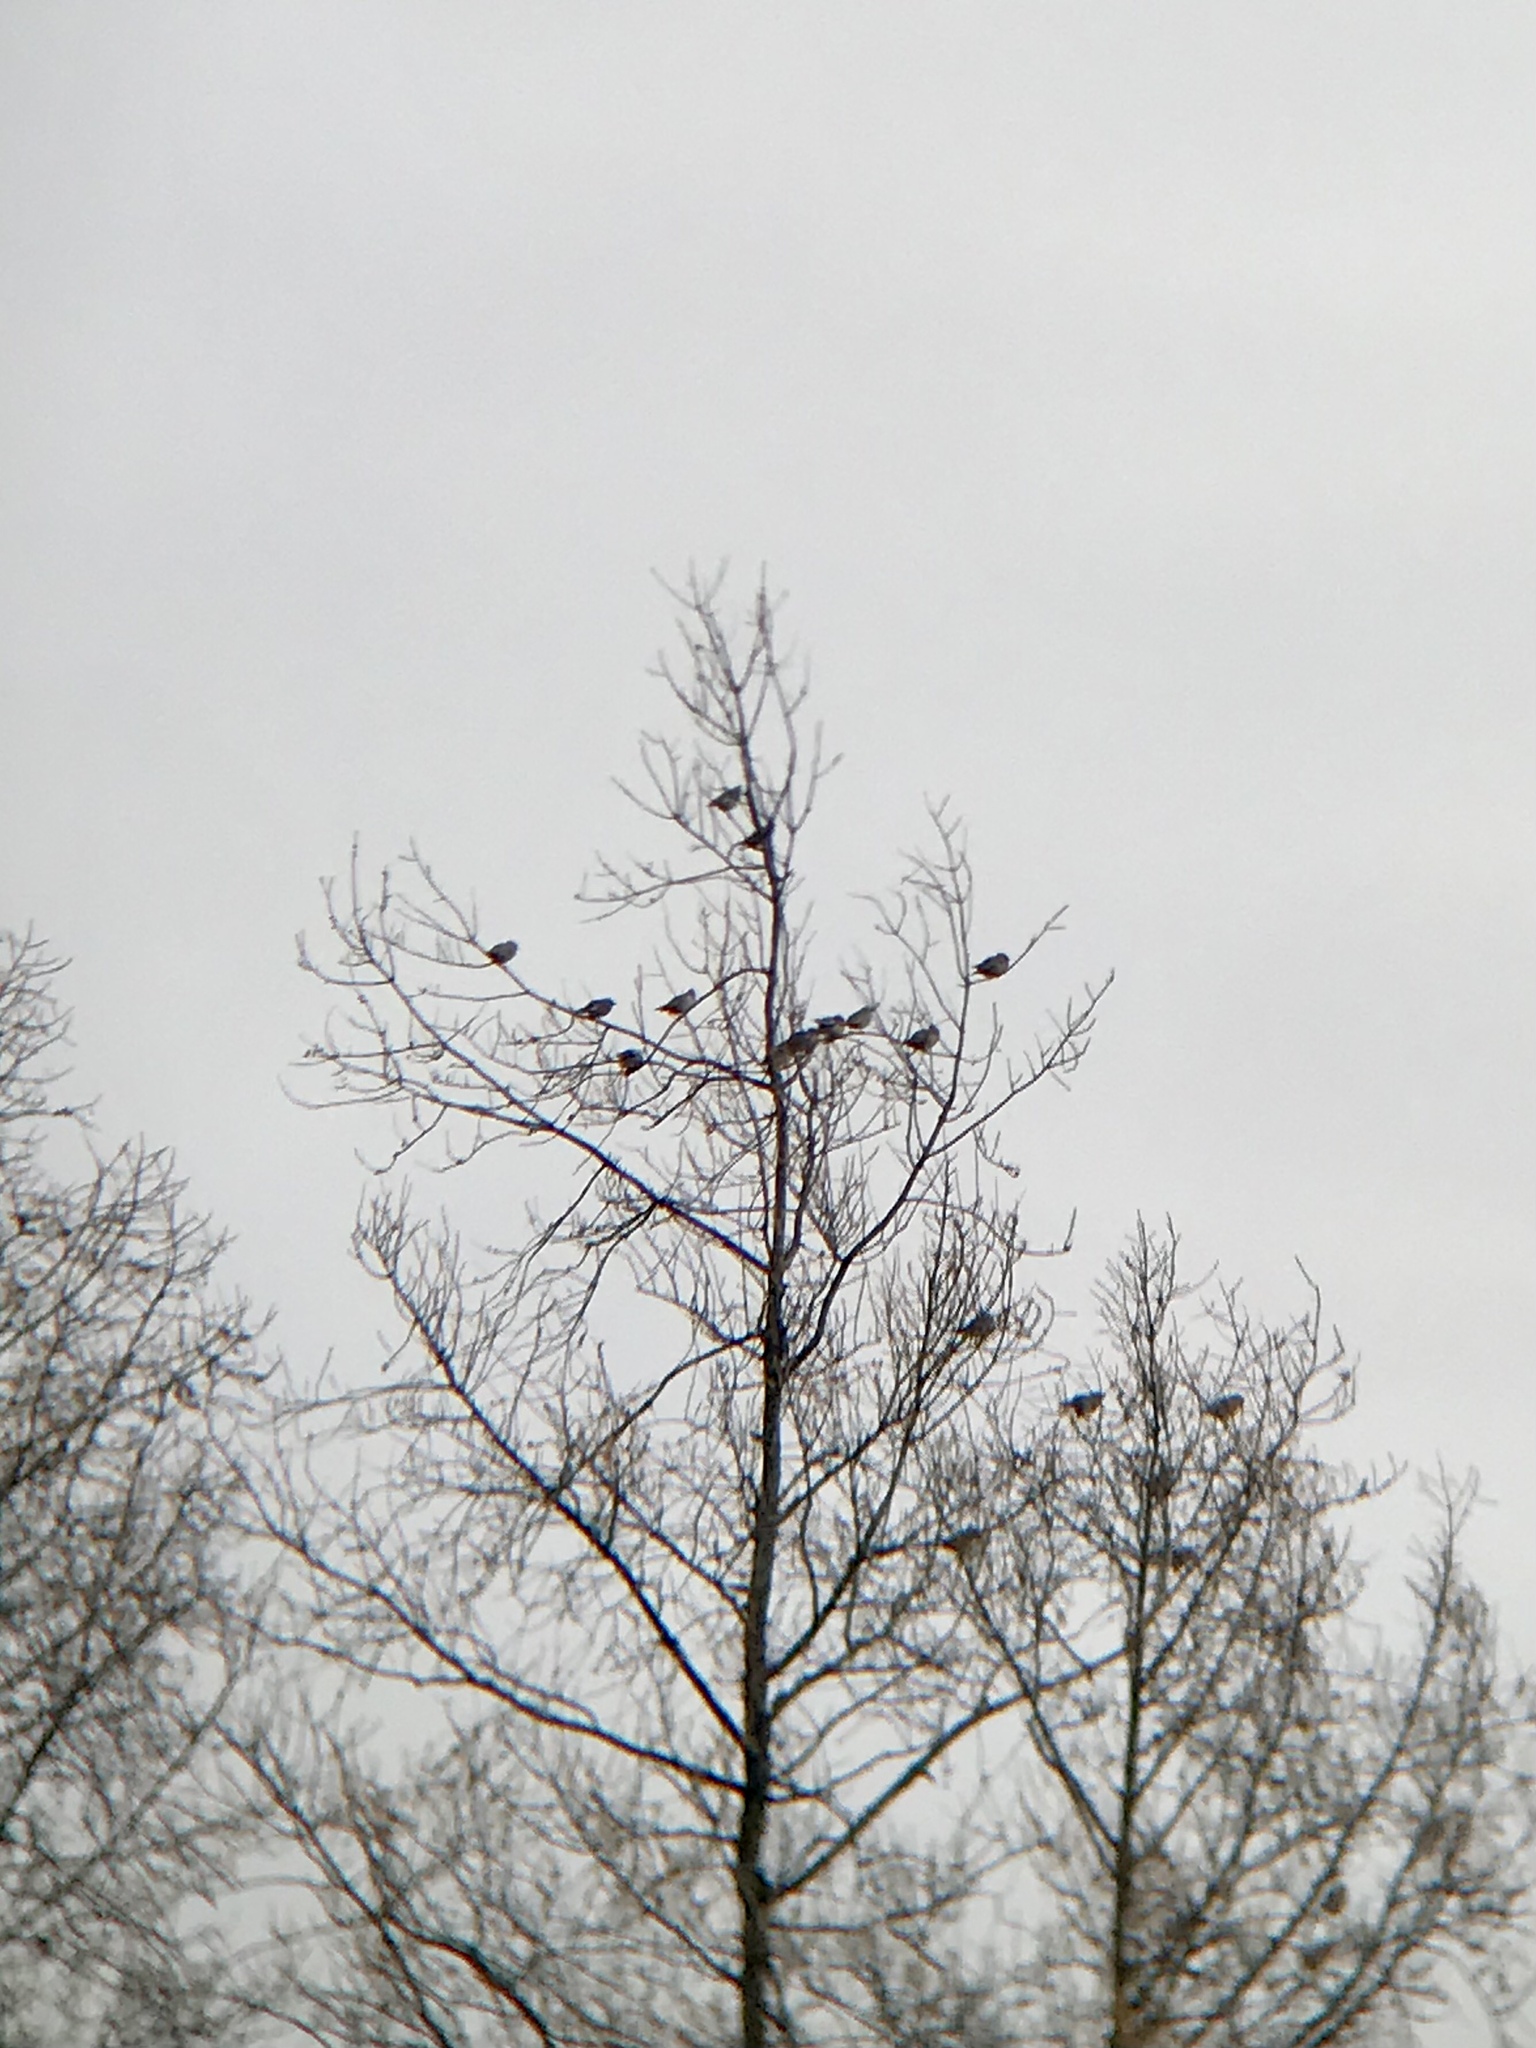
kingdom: Animalia
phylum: Chordata
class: Aves
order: Passeriformes
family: Bombycillidae
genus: Bombycilla
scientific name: Bombycilla garrulus
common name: Bohemian waxwing
